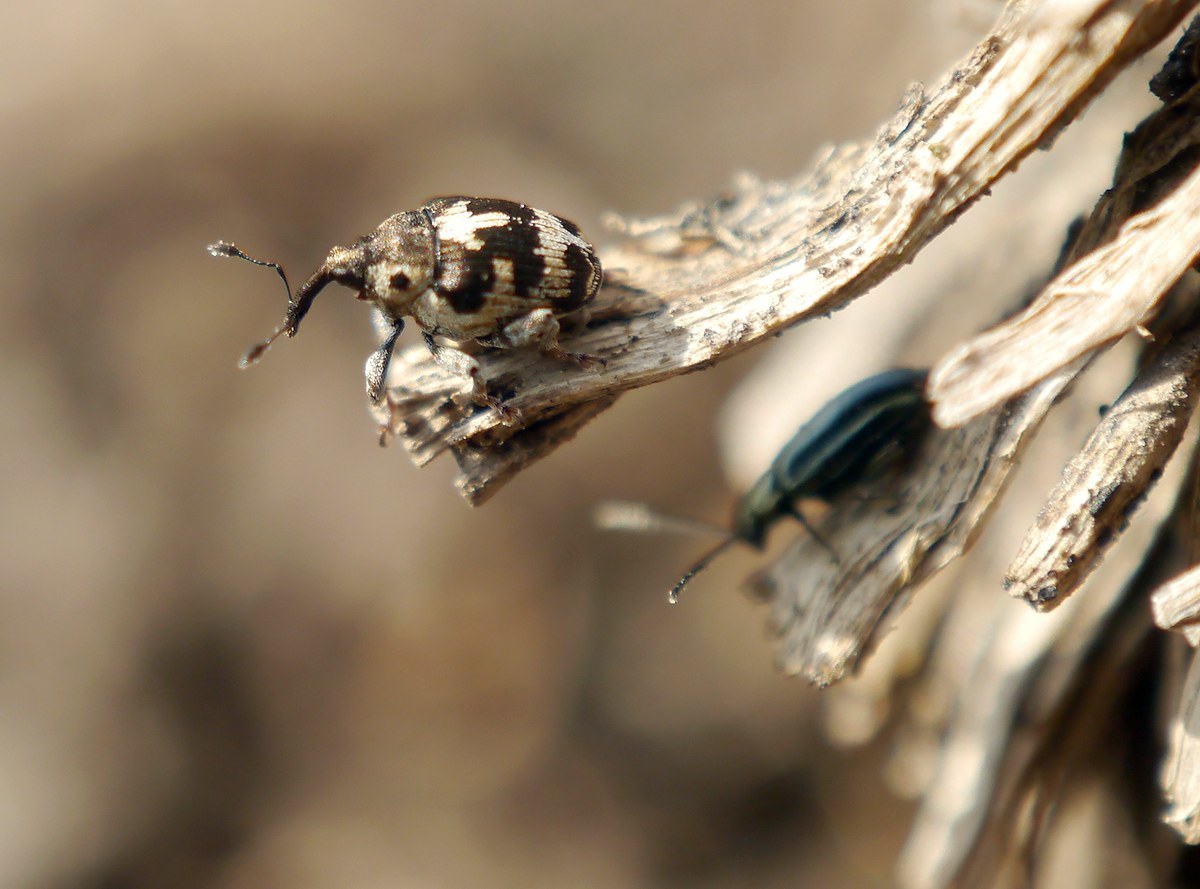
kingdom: Animalia
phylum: Arthropoda
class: Insecta
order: Coleoptera
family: Curculionidae
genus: Thamiocolus
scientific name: Thamiocolus sinapis
